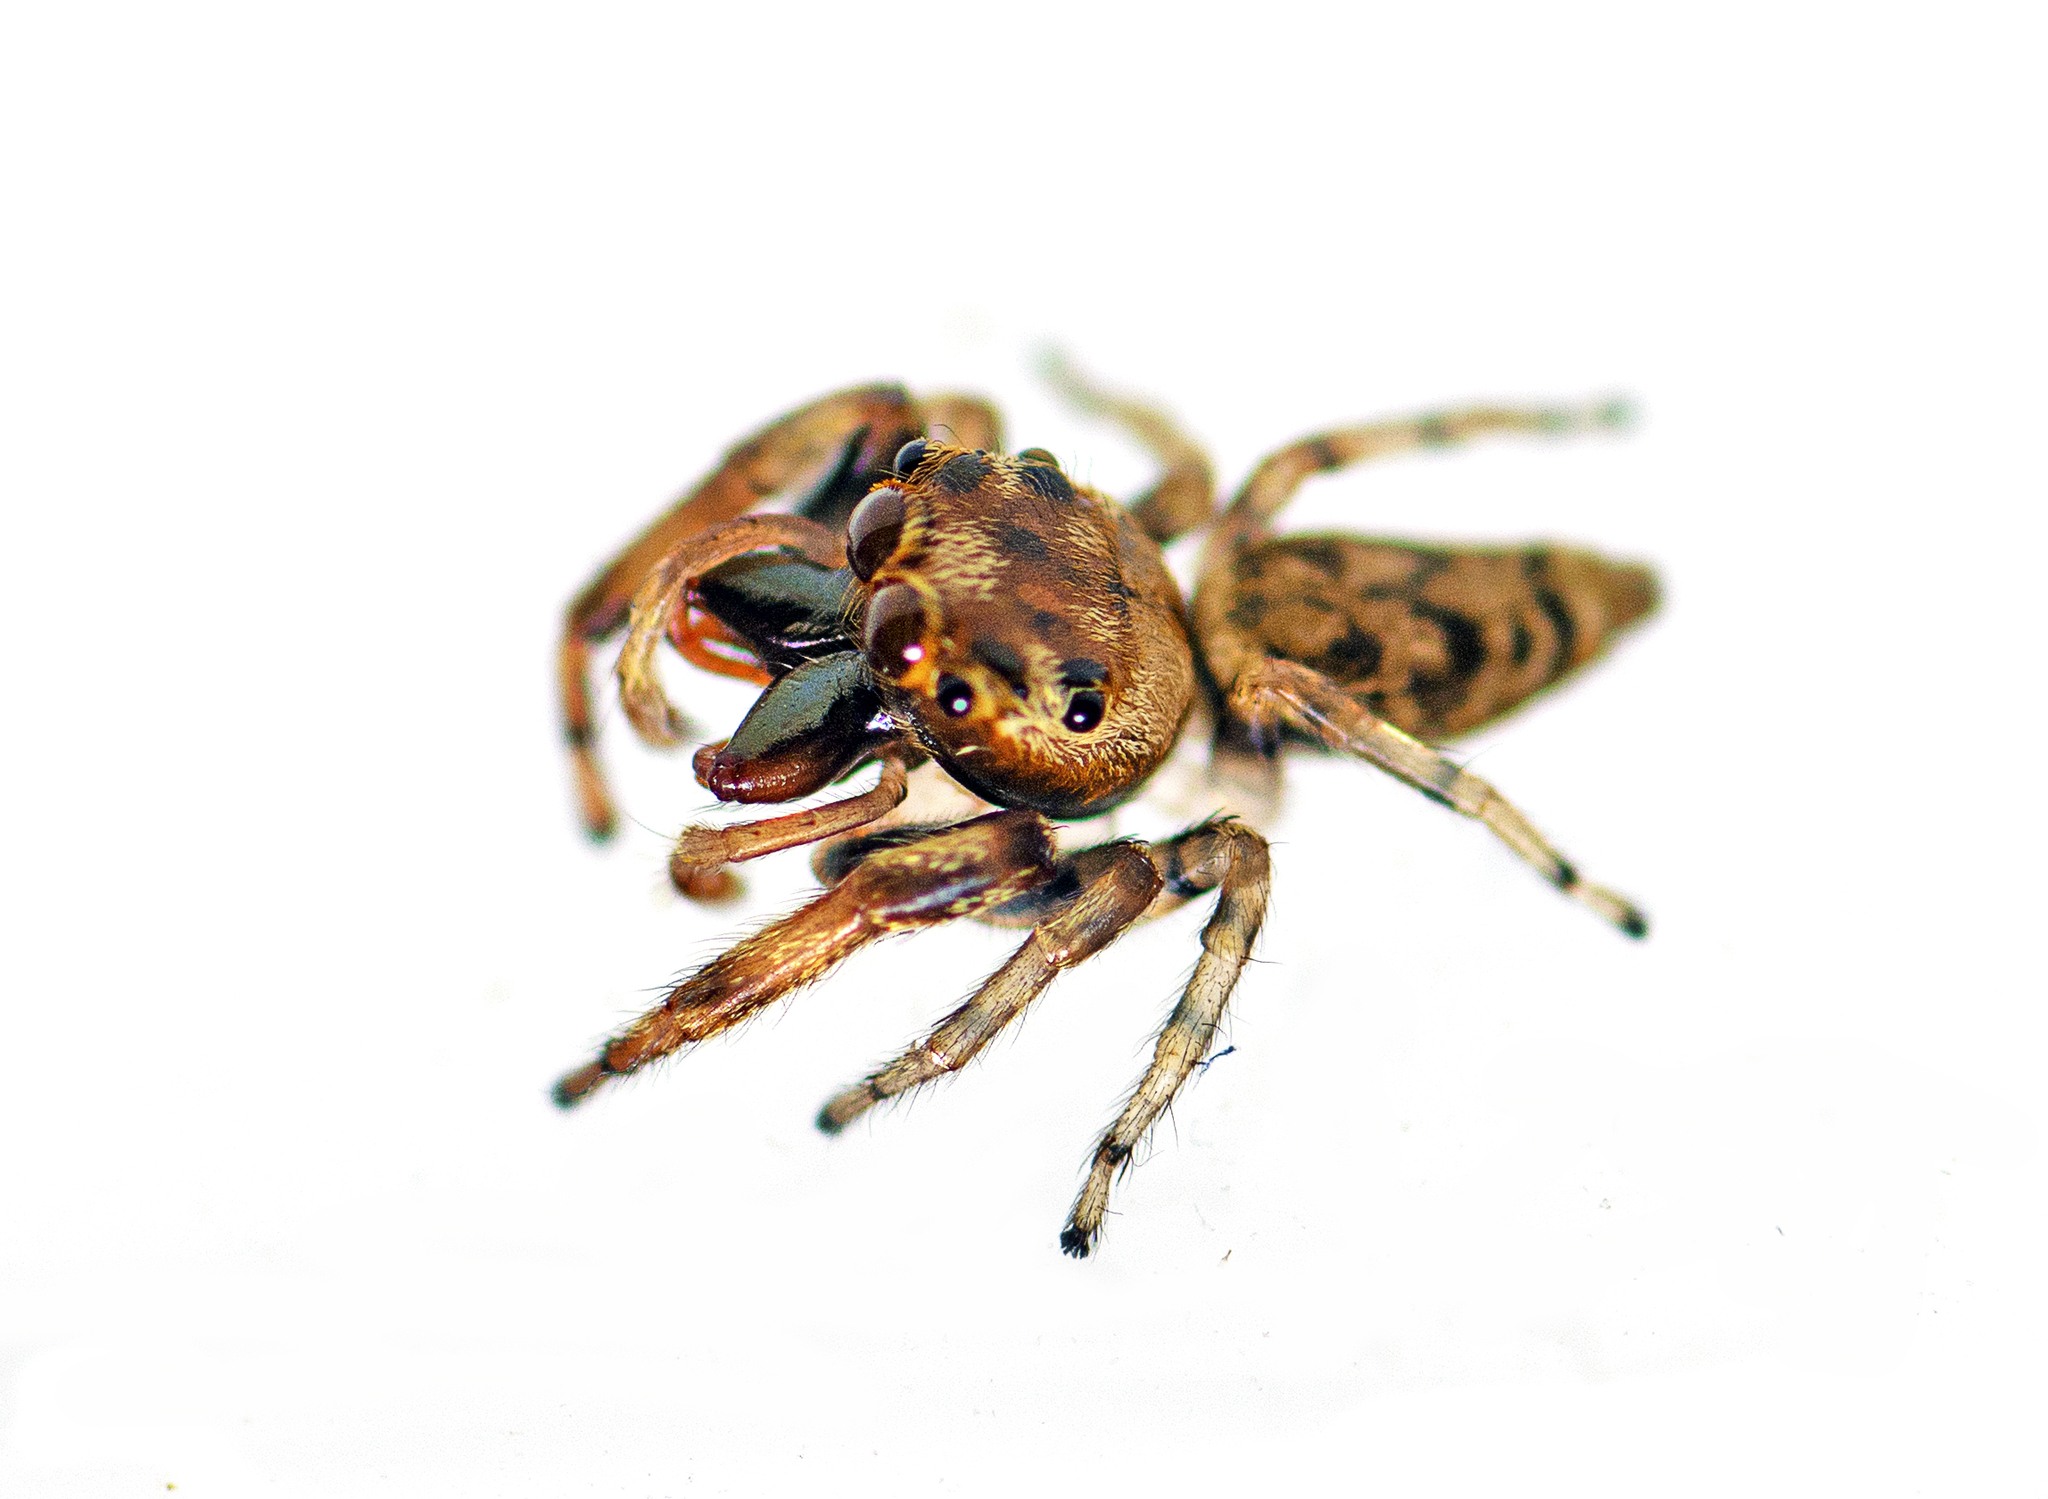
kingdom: Animalia
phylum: Arthropoda
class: Arachnida
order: Araneae
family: Salticidae
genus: Opisthoncus
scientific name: Opisthoncus barbipalpis
